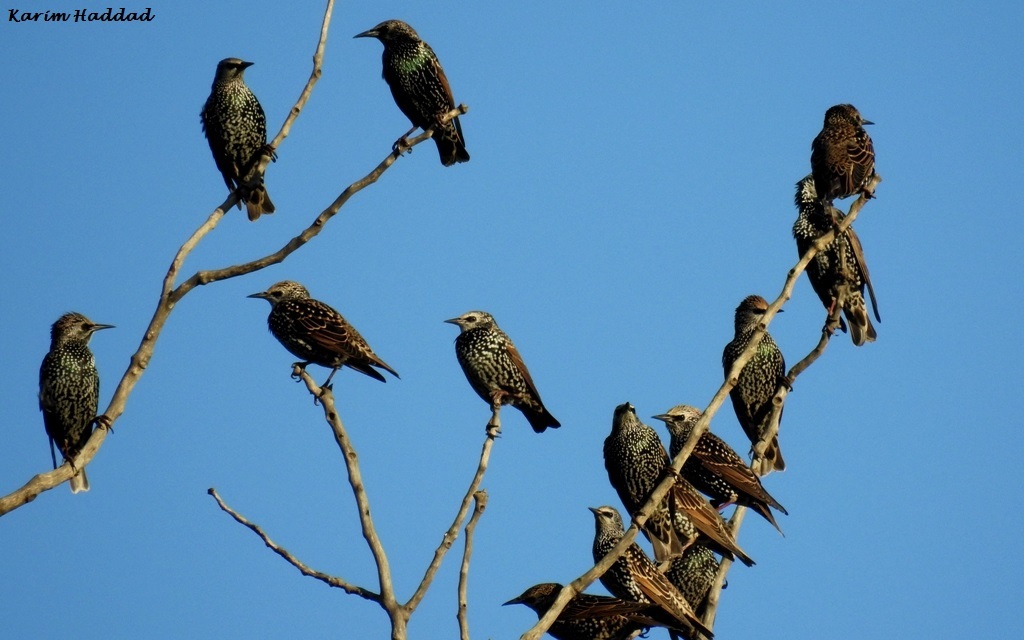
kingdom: Animalia
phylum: Chordata
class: Aves
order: Passeriformes
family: Sturnidae
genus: Sturnus
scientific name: Sturnus vulgaris
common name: Common starling
